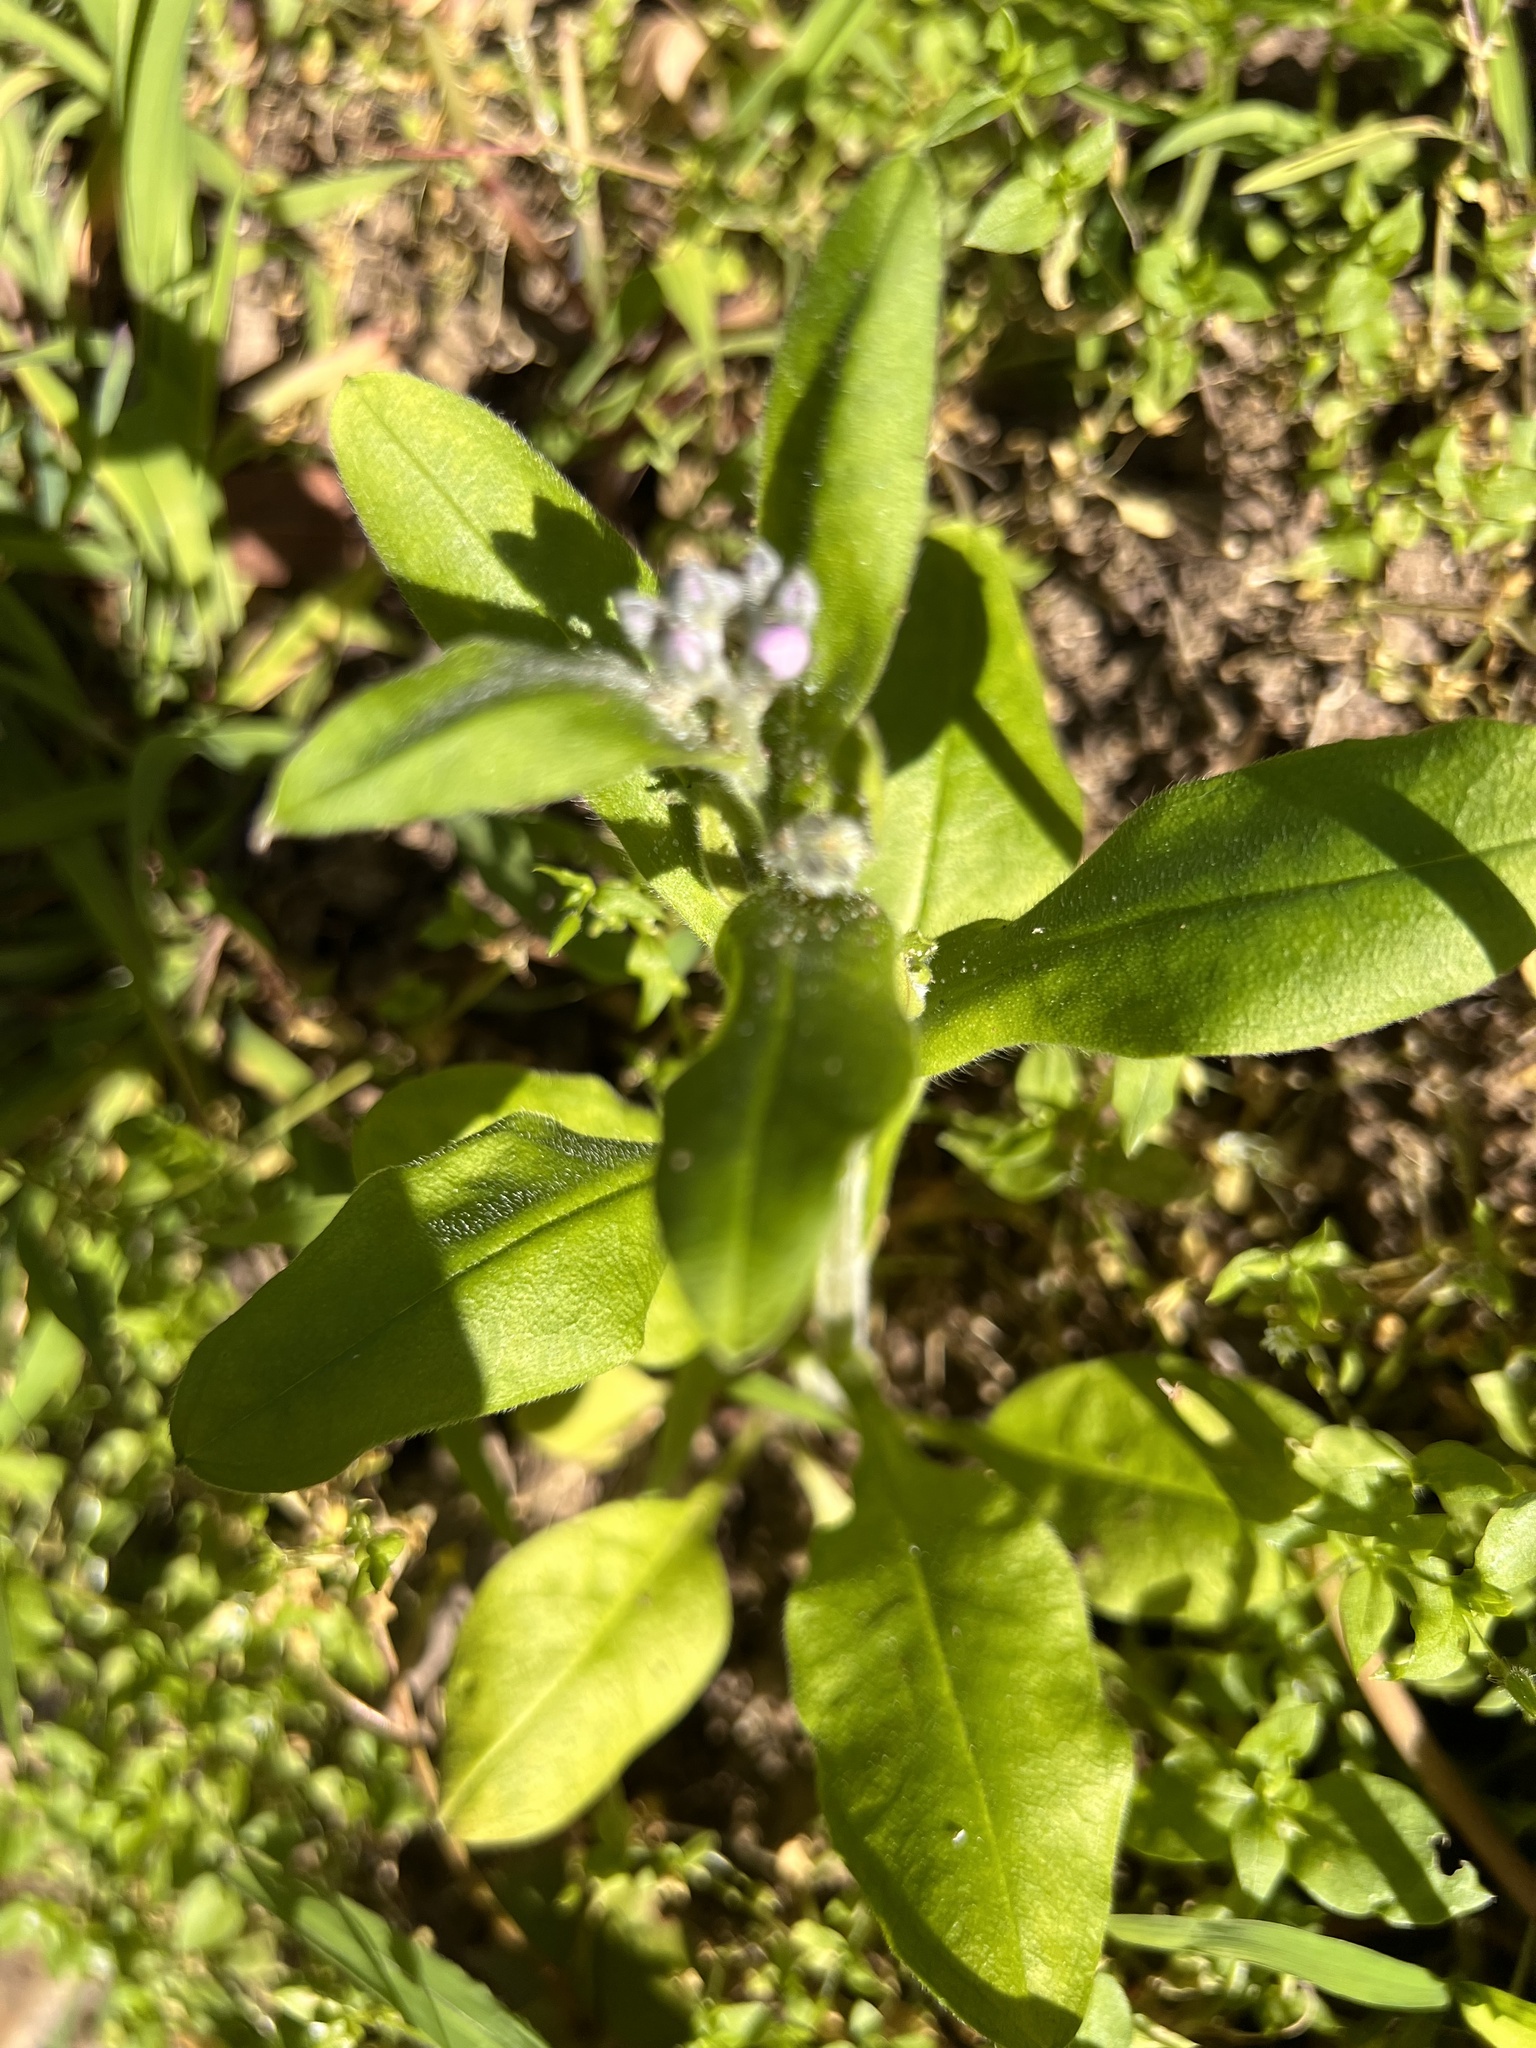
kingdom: Plantae
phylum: Tracheophyta
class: Magnoliopsida
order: Boraginales
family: Boraginaceae
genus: Myosotis
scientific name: Myosotis latifolia
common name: Broadleaf forget-me-not
